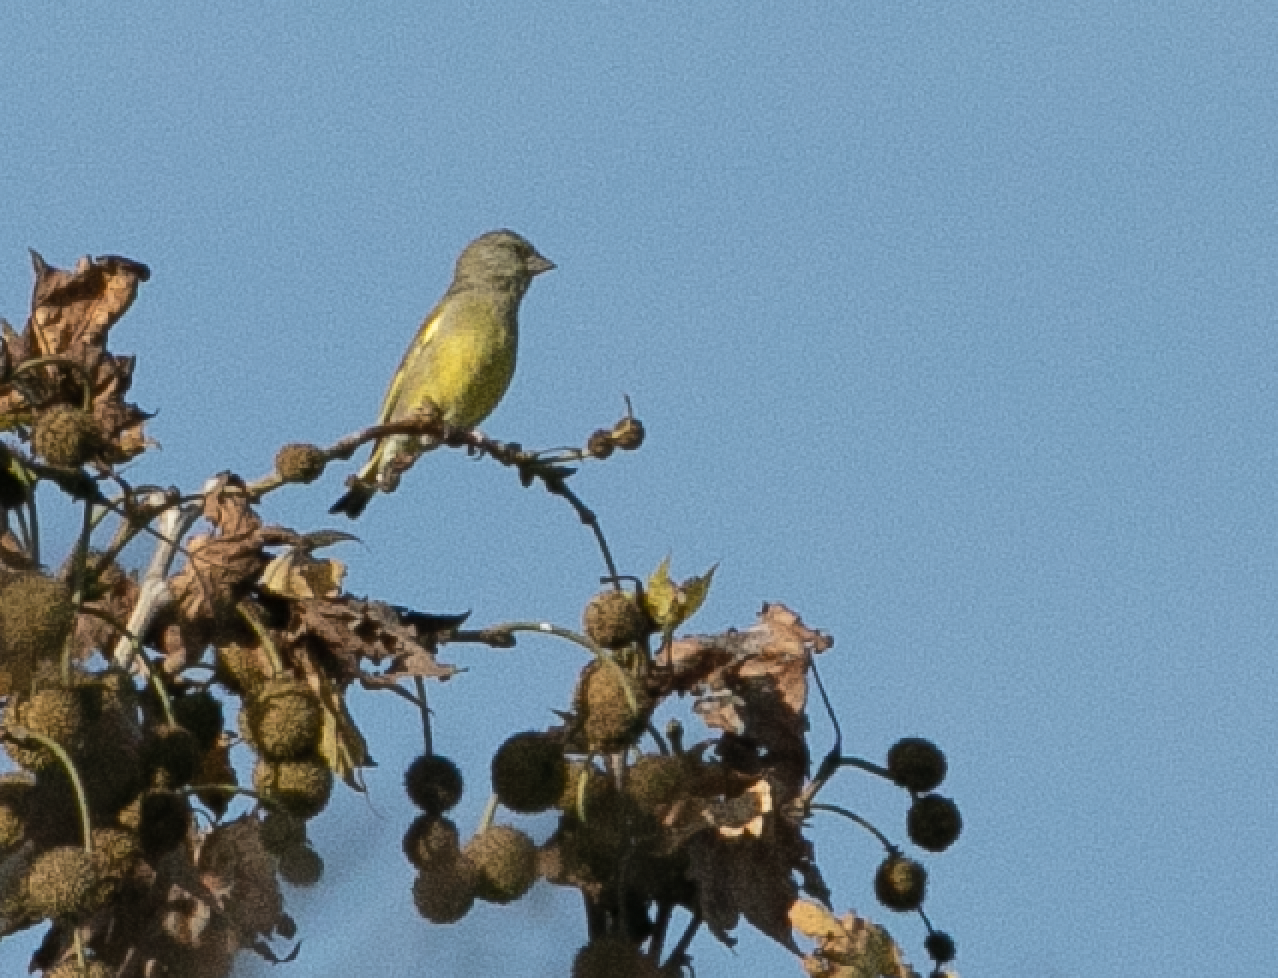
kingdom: Plantae
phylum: Tracheophyta
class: Liliopsida
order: Poales
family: Poaceae
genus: Chloris
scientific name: Chloris chloris
